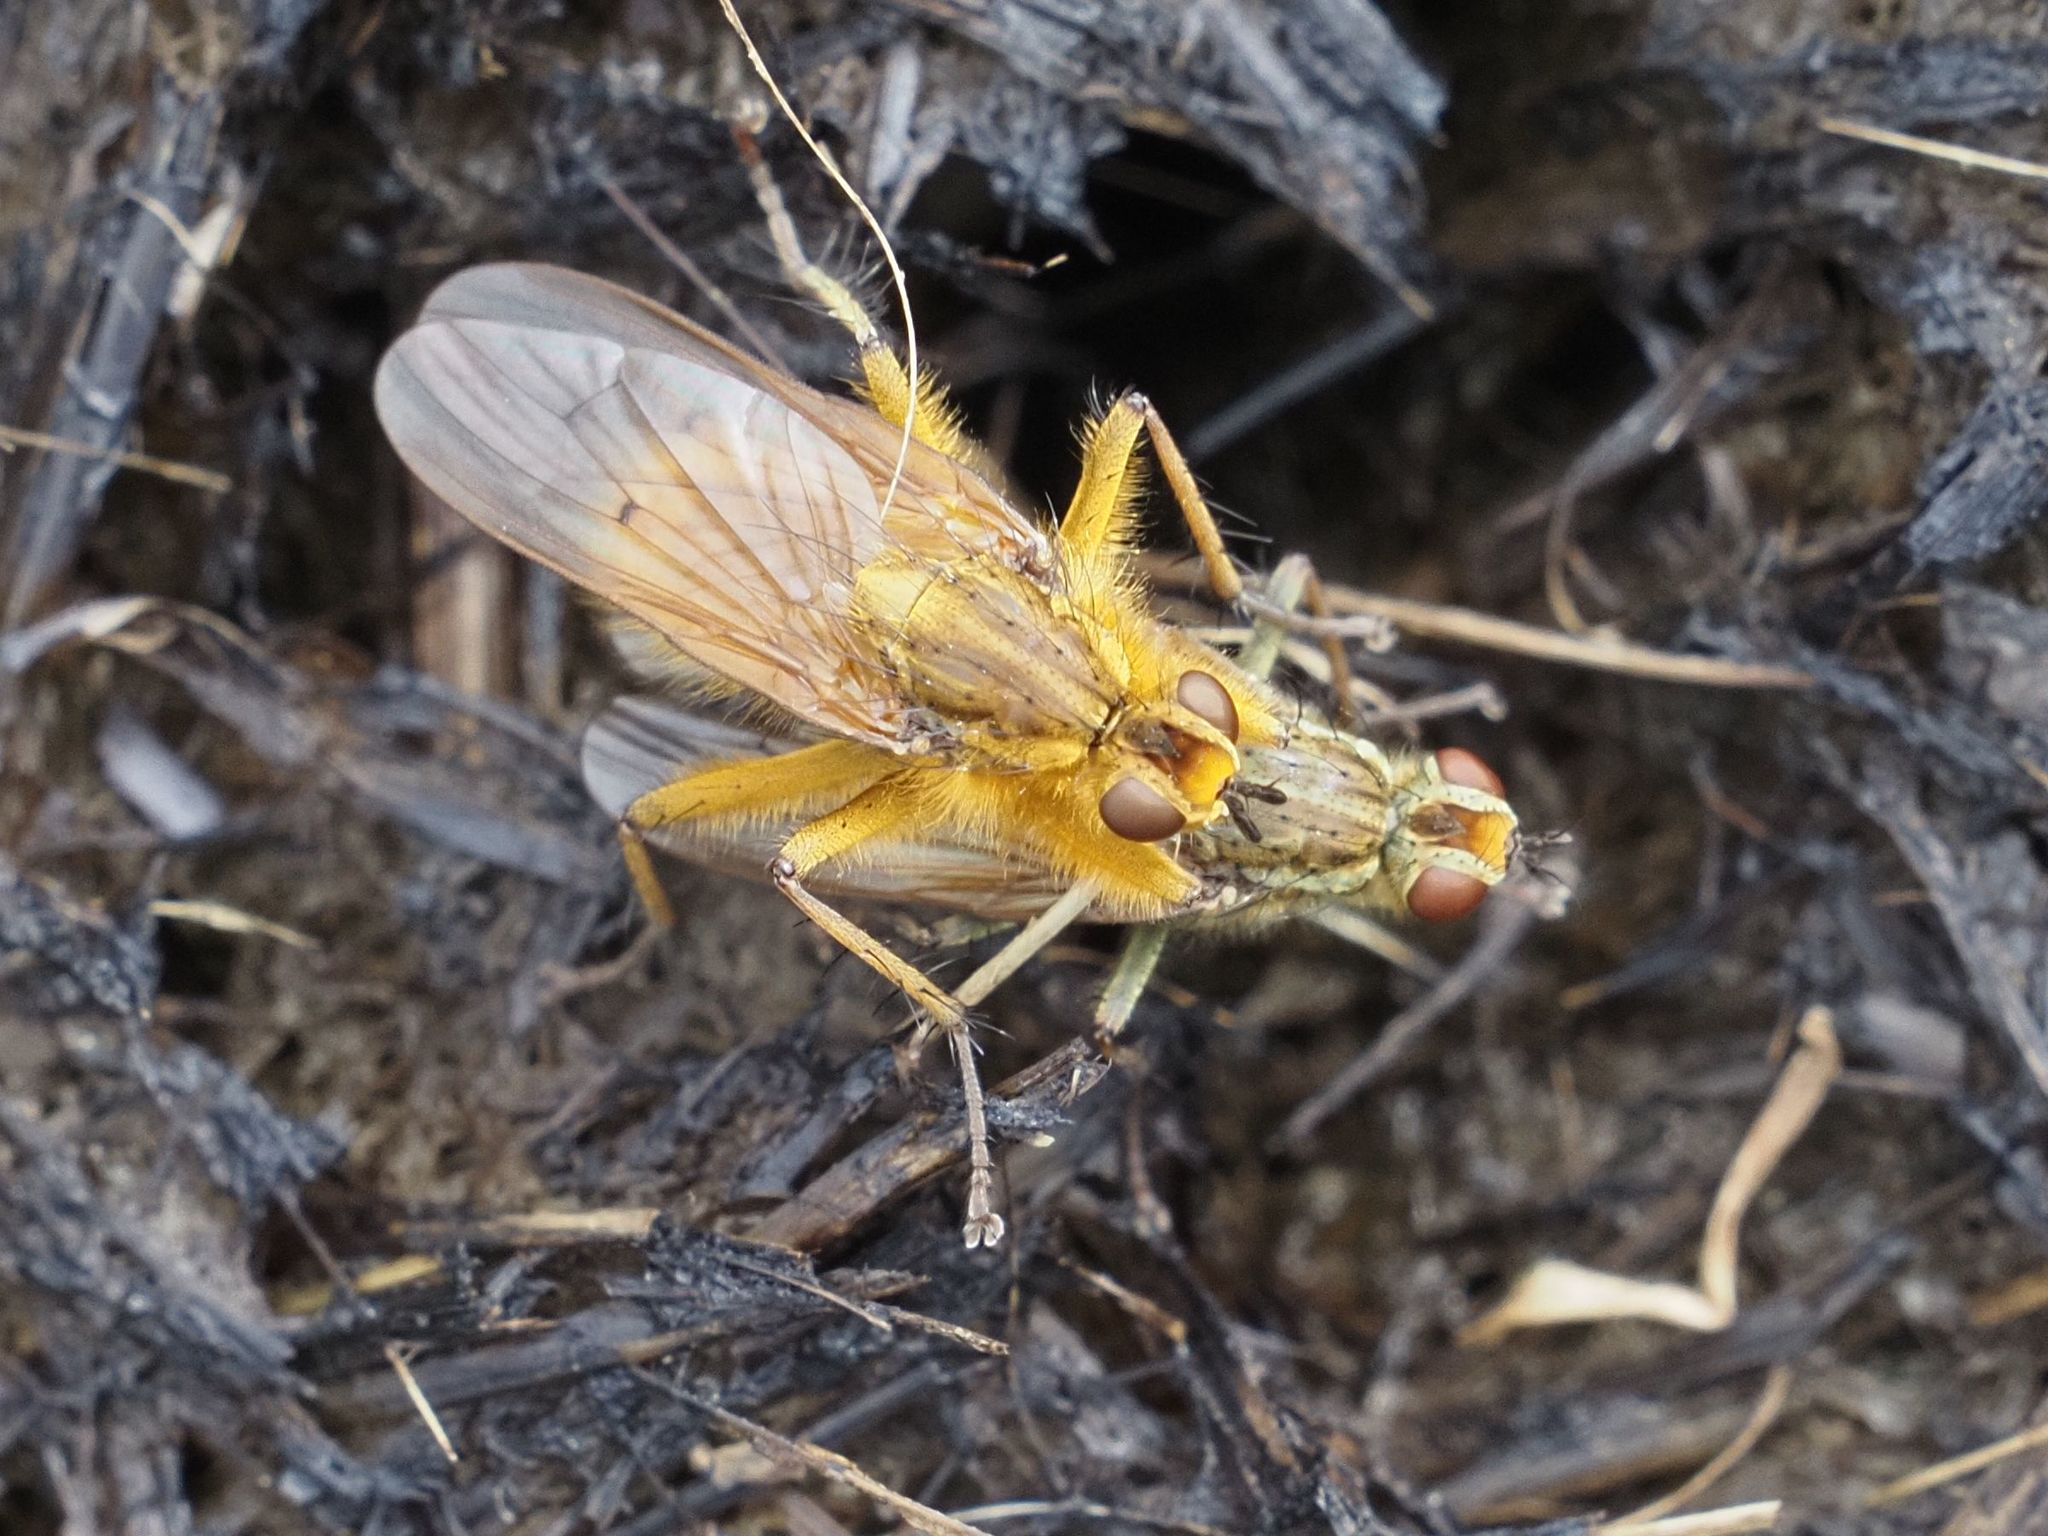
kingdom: Animalia
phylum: Arthropoda
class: Insecta
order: Diptera
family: Scathophagidae
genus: Scathophaga
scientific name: Scathophaga stercoraria
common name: Yellow dung fly
